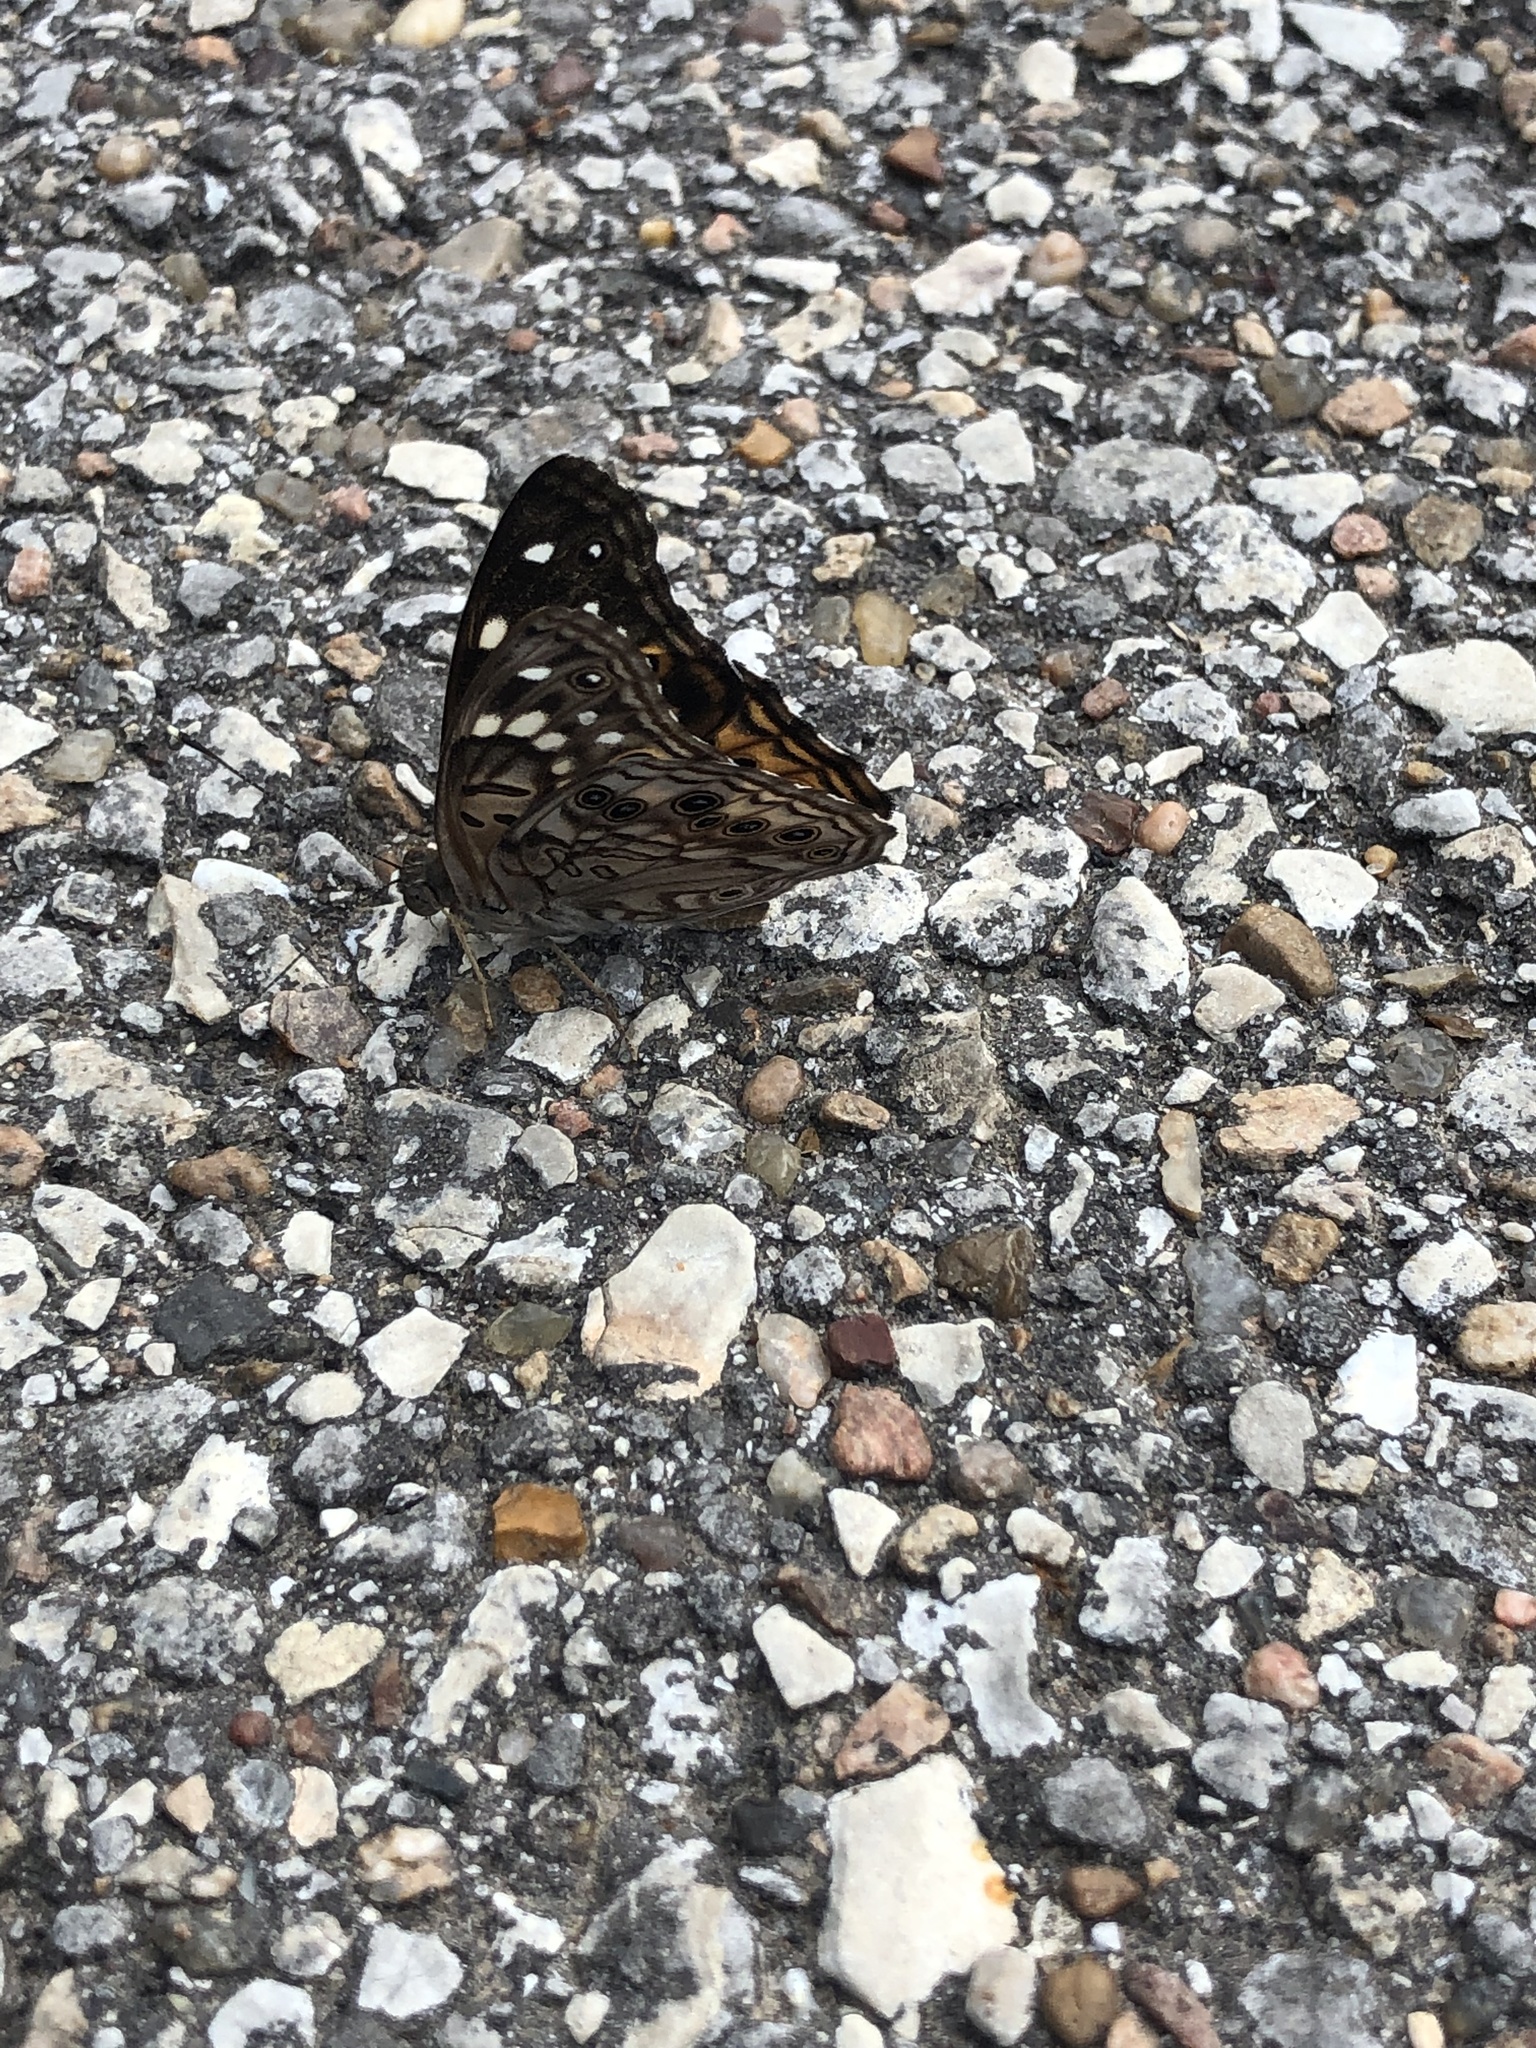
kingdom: Animalia
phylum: Arthropoda
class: Insecta
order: Lepidoptera
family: Nymphalidae
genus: Asterocampa
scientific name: Asterocampa celtis
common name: Hackberry emperor
